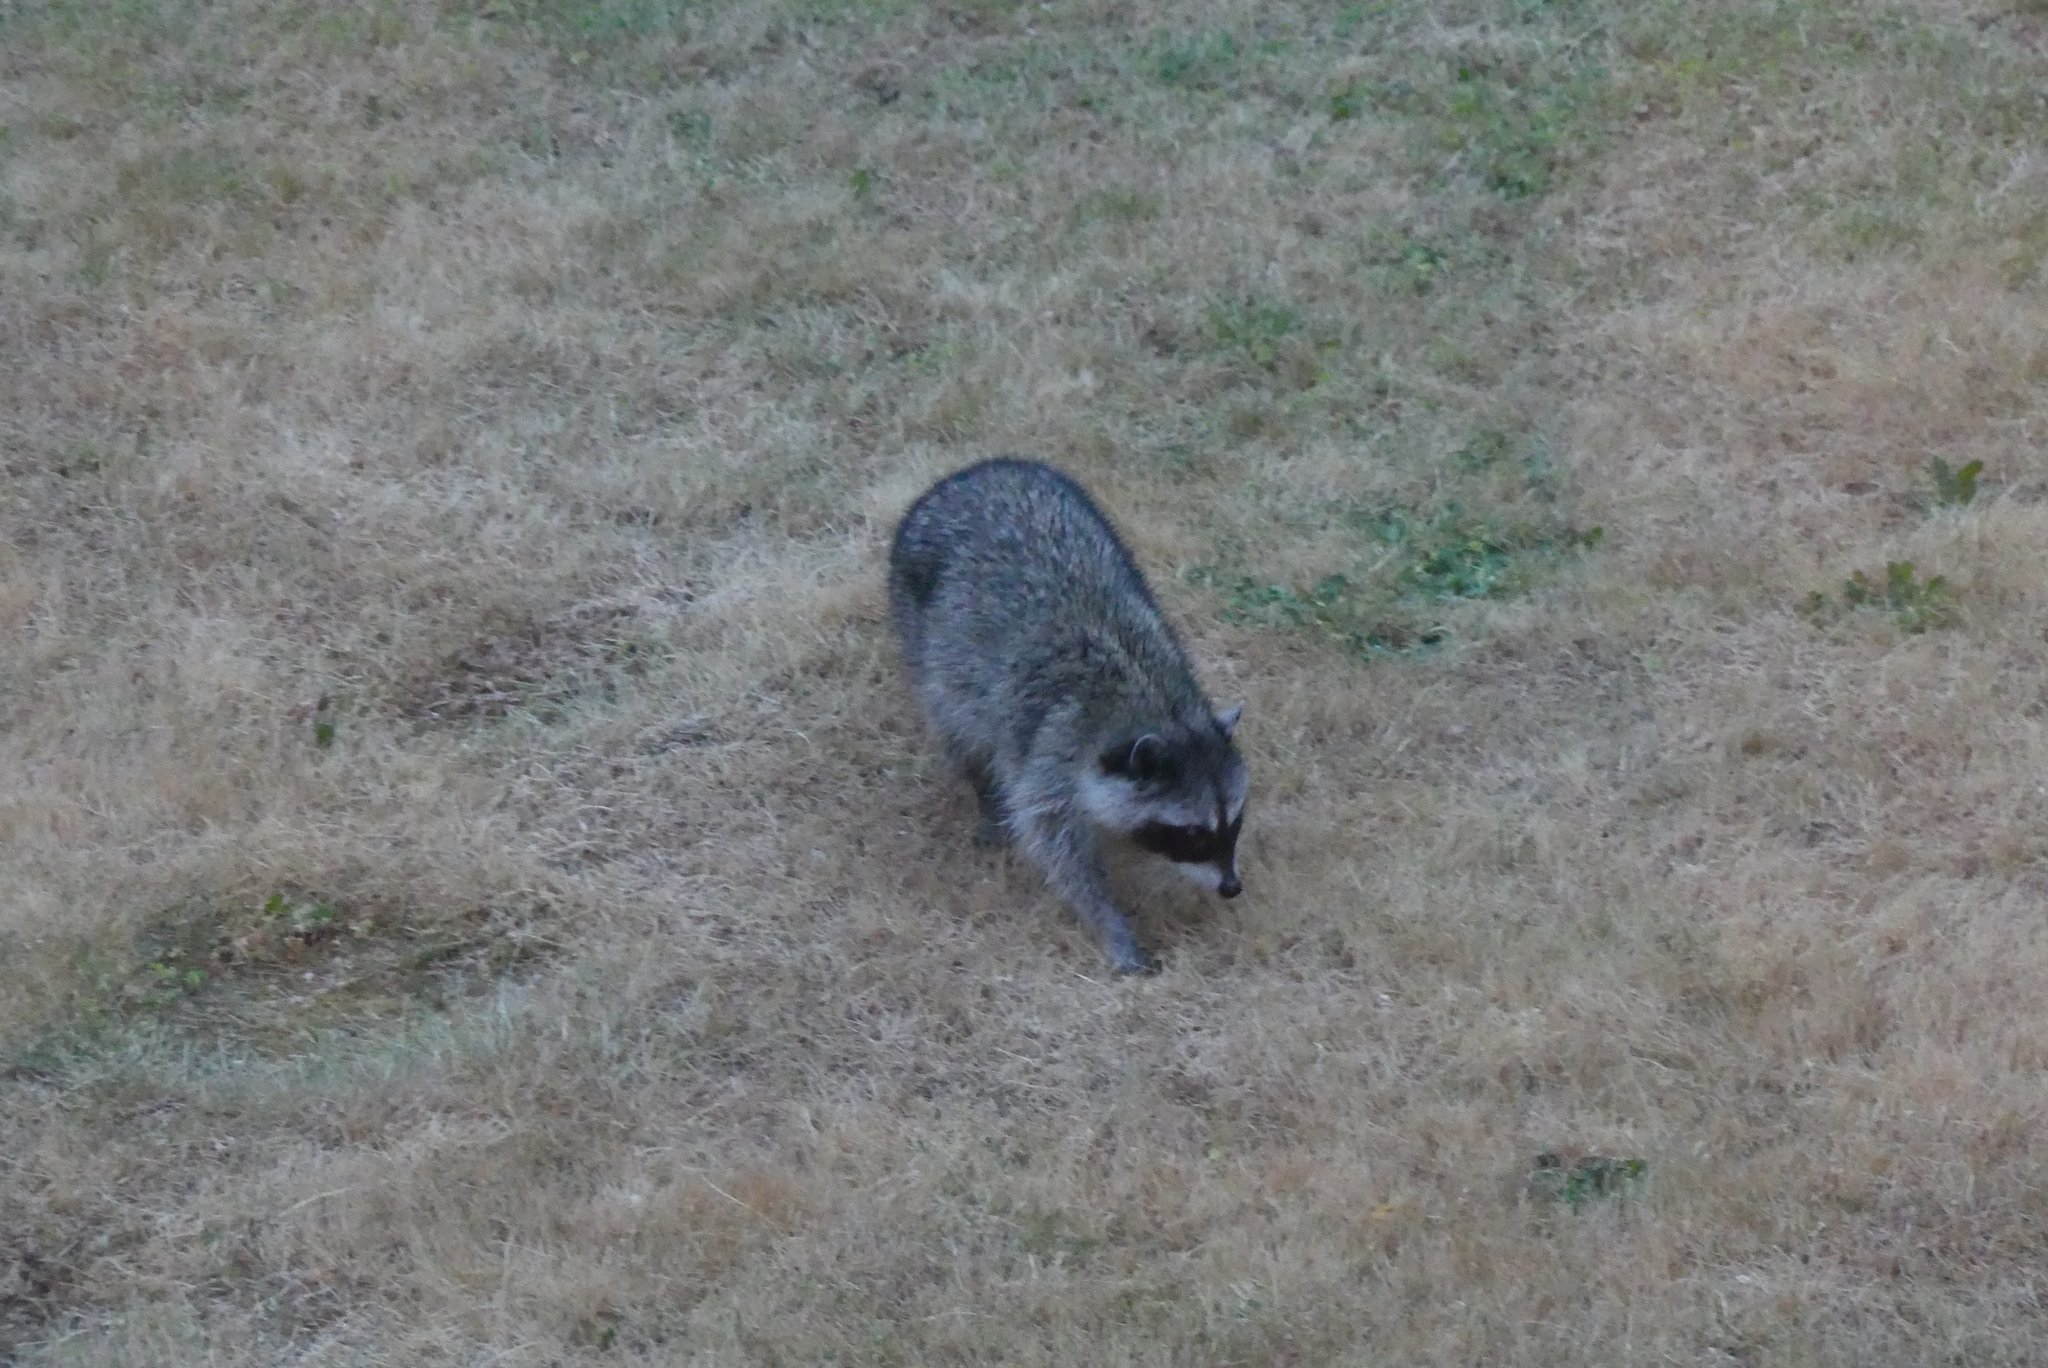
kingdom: Animalia
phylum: Chordata
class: Mammalia
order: Carnivora
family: Procyonidae
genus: Procyon
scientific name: Procyon lotor
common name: Raccoon
